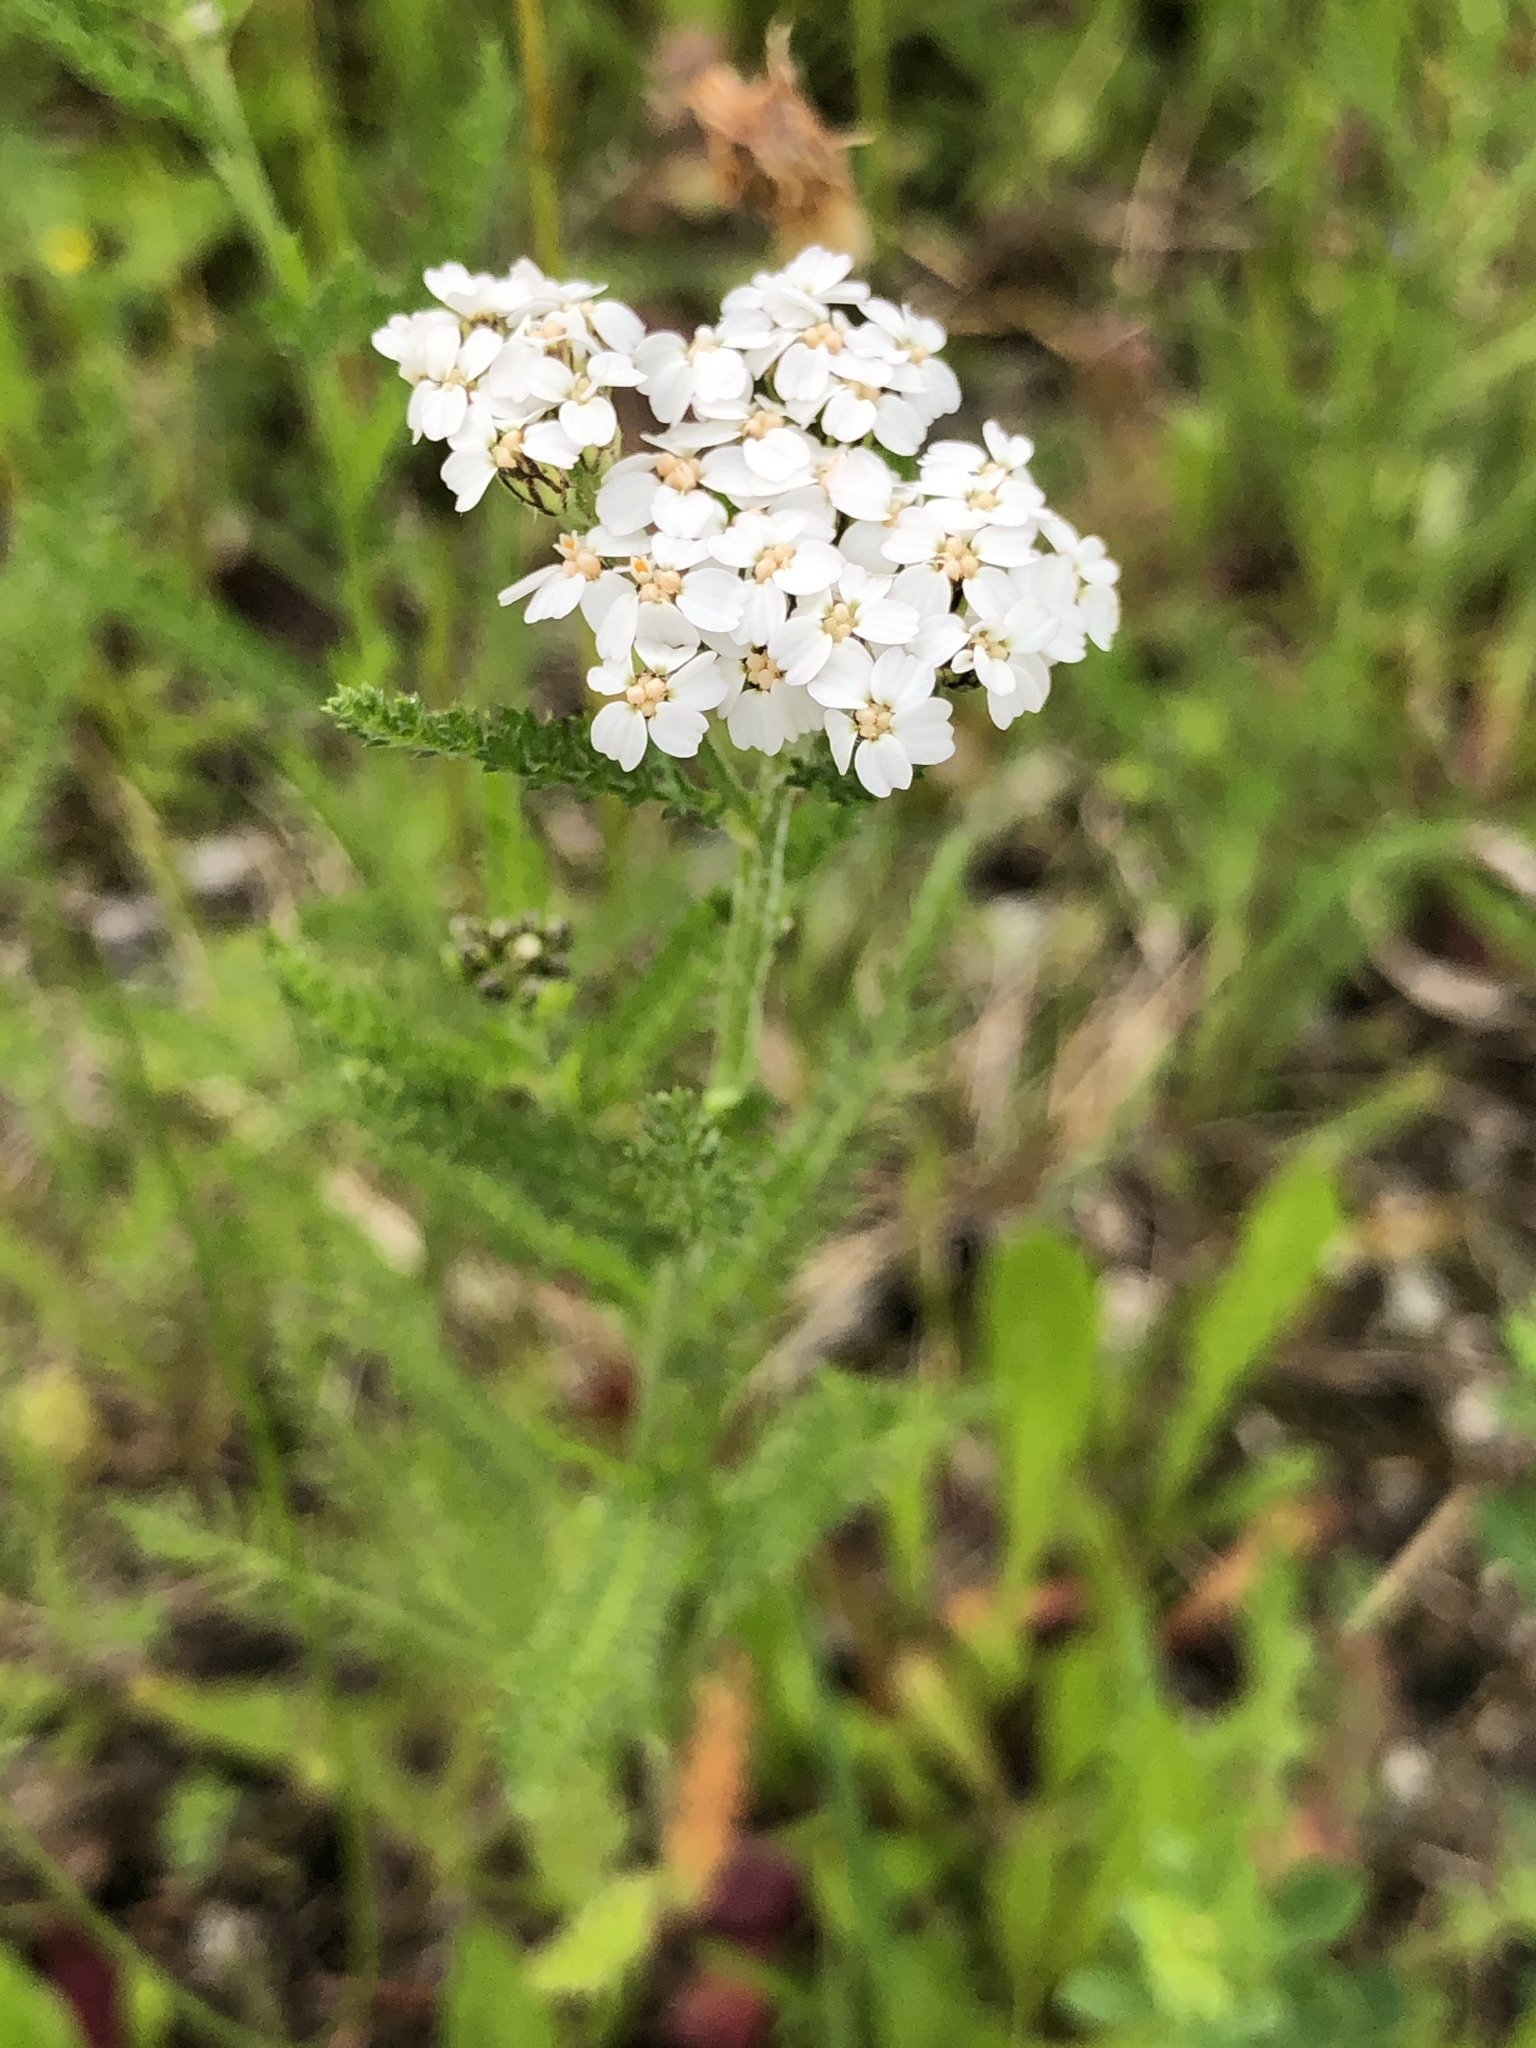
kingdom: Plantae
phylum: Tracheophyta
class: Magnoliopsida
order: Asterales
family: Asteraceae
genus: Achillea
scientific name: Achillea millefolium
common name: Yarrow
